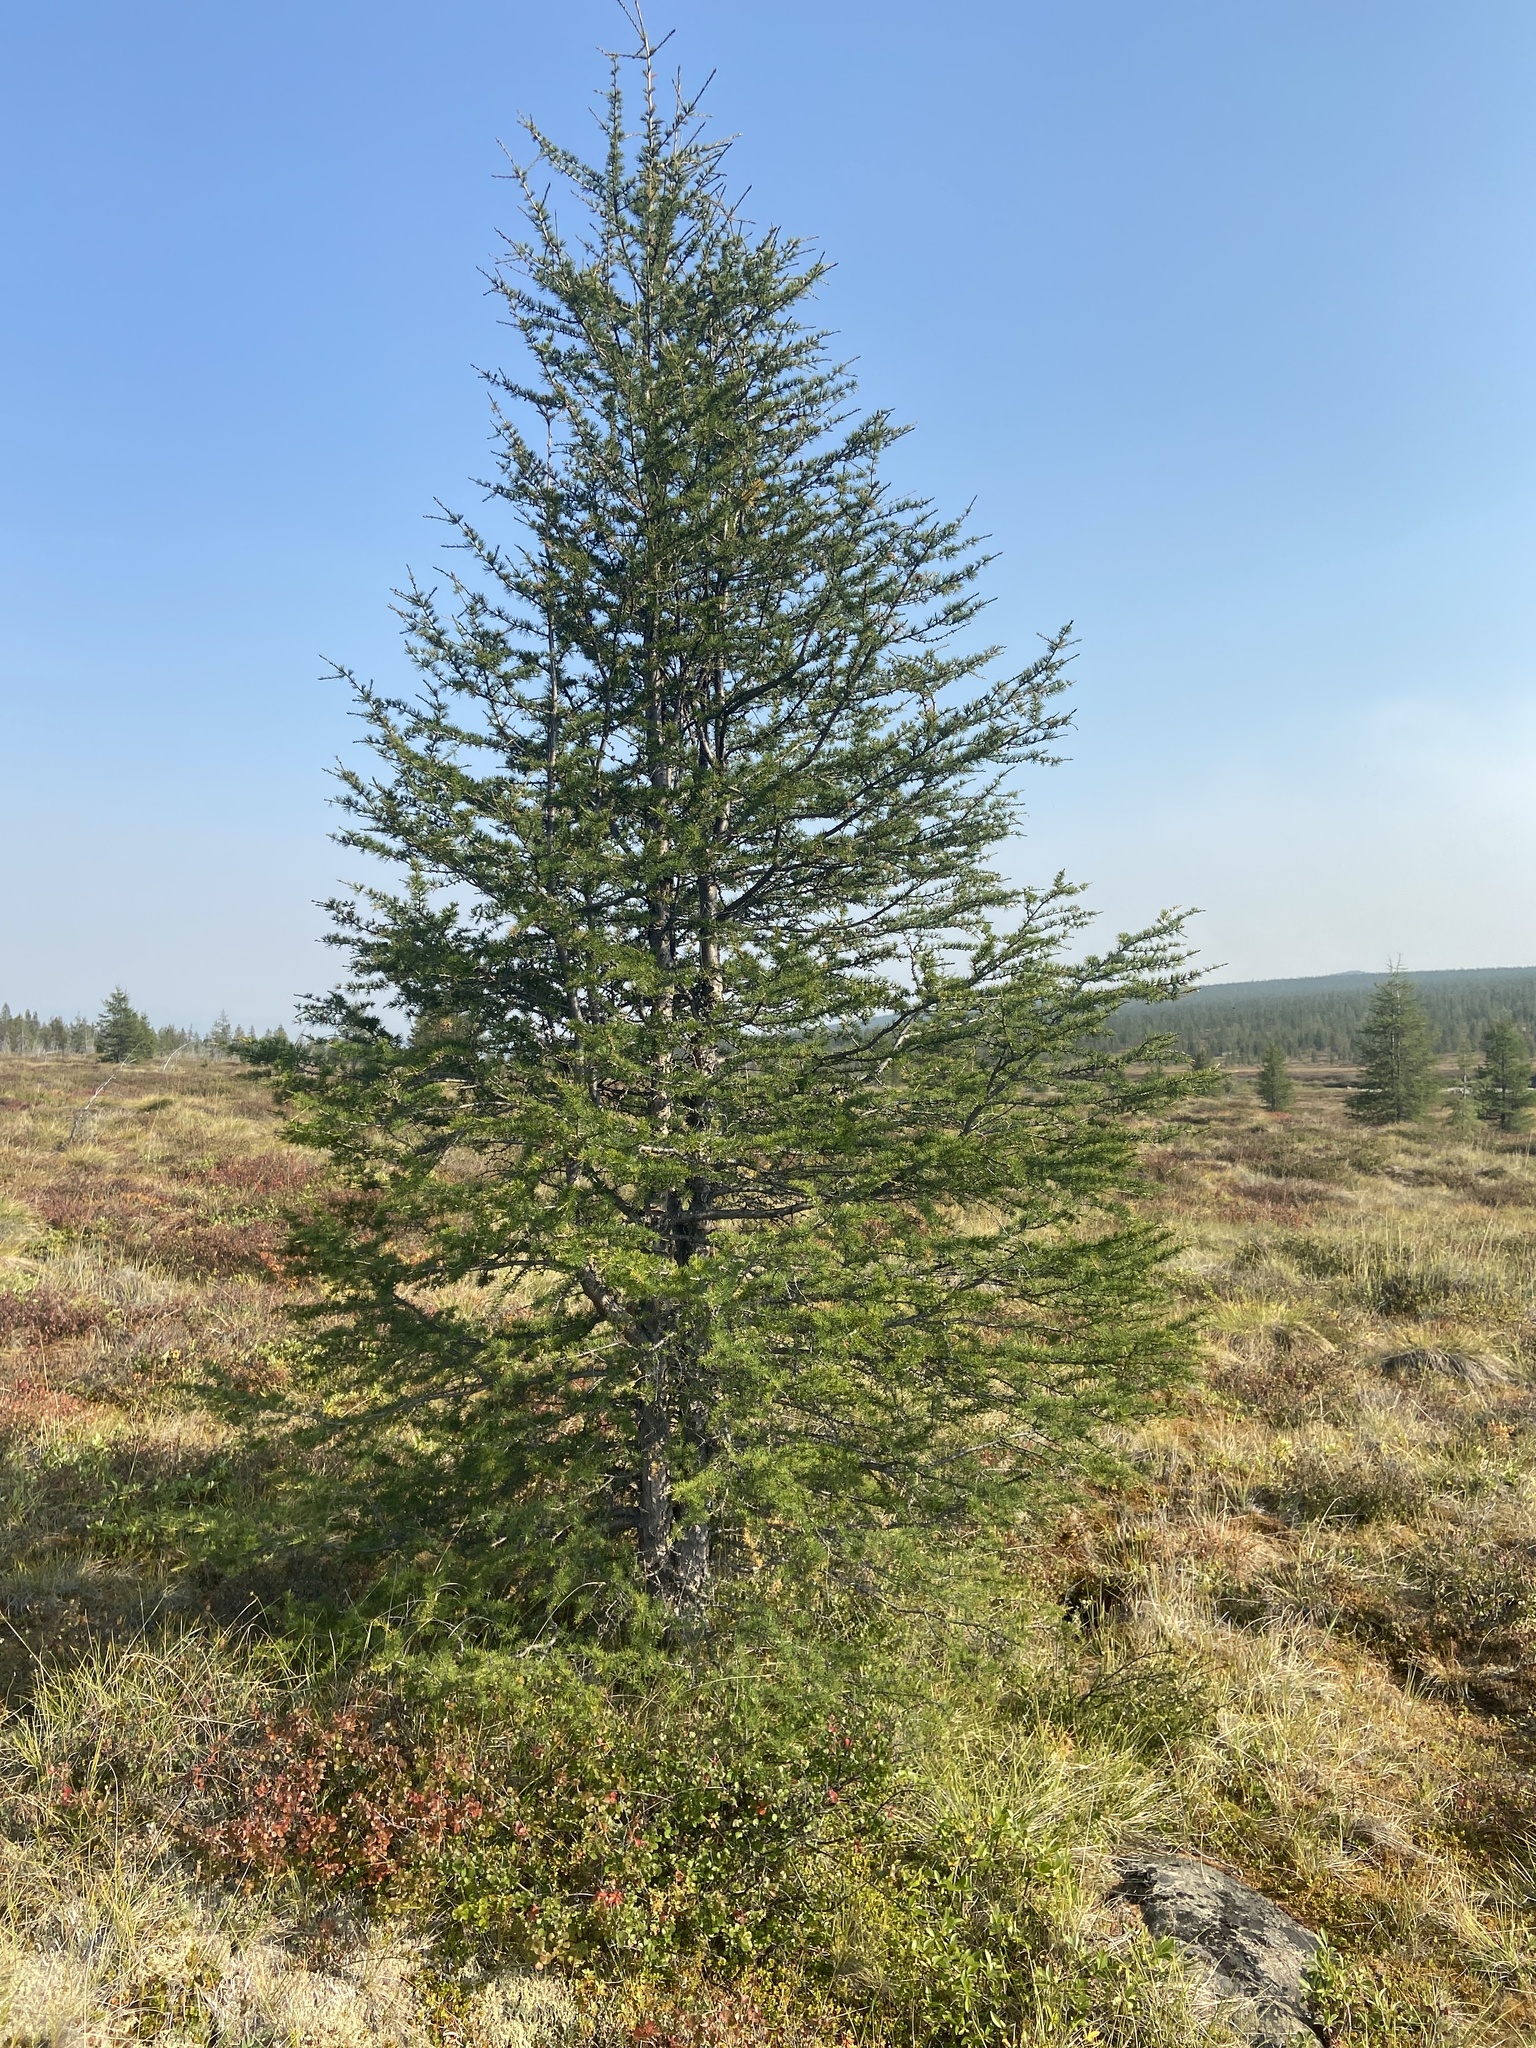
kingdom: Plantae
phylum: Tracheophyta
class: Pinopsida
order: Pinales
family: Pinaceae
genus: Larix
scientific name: Larix gmelinii
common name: Dahurian larch
